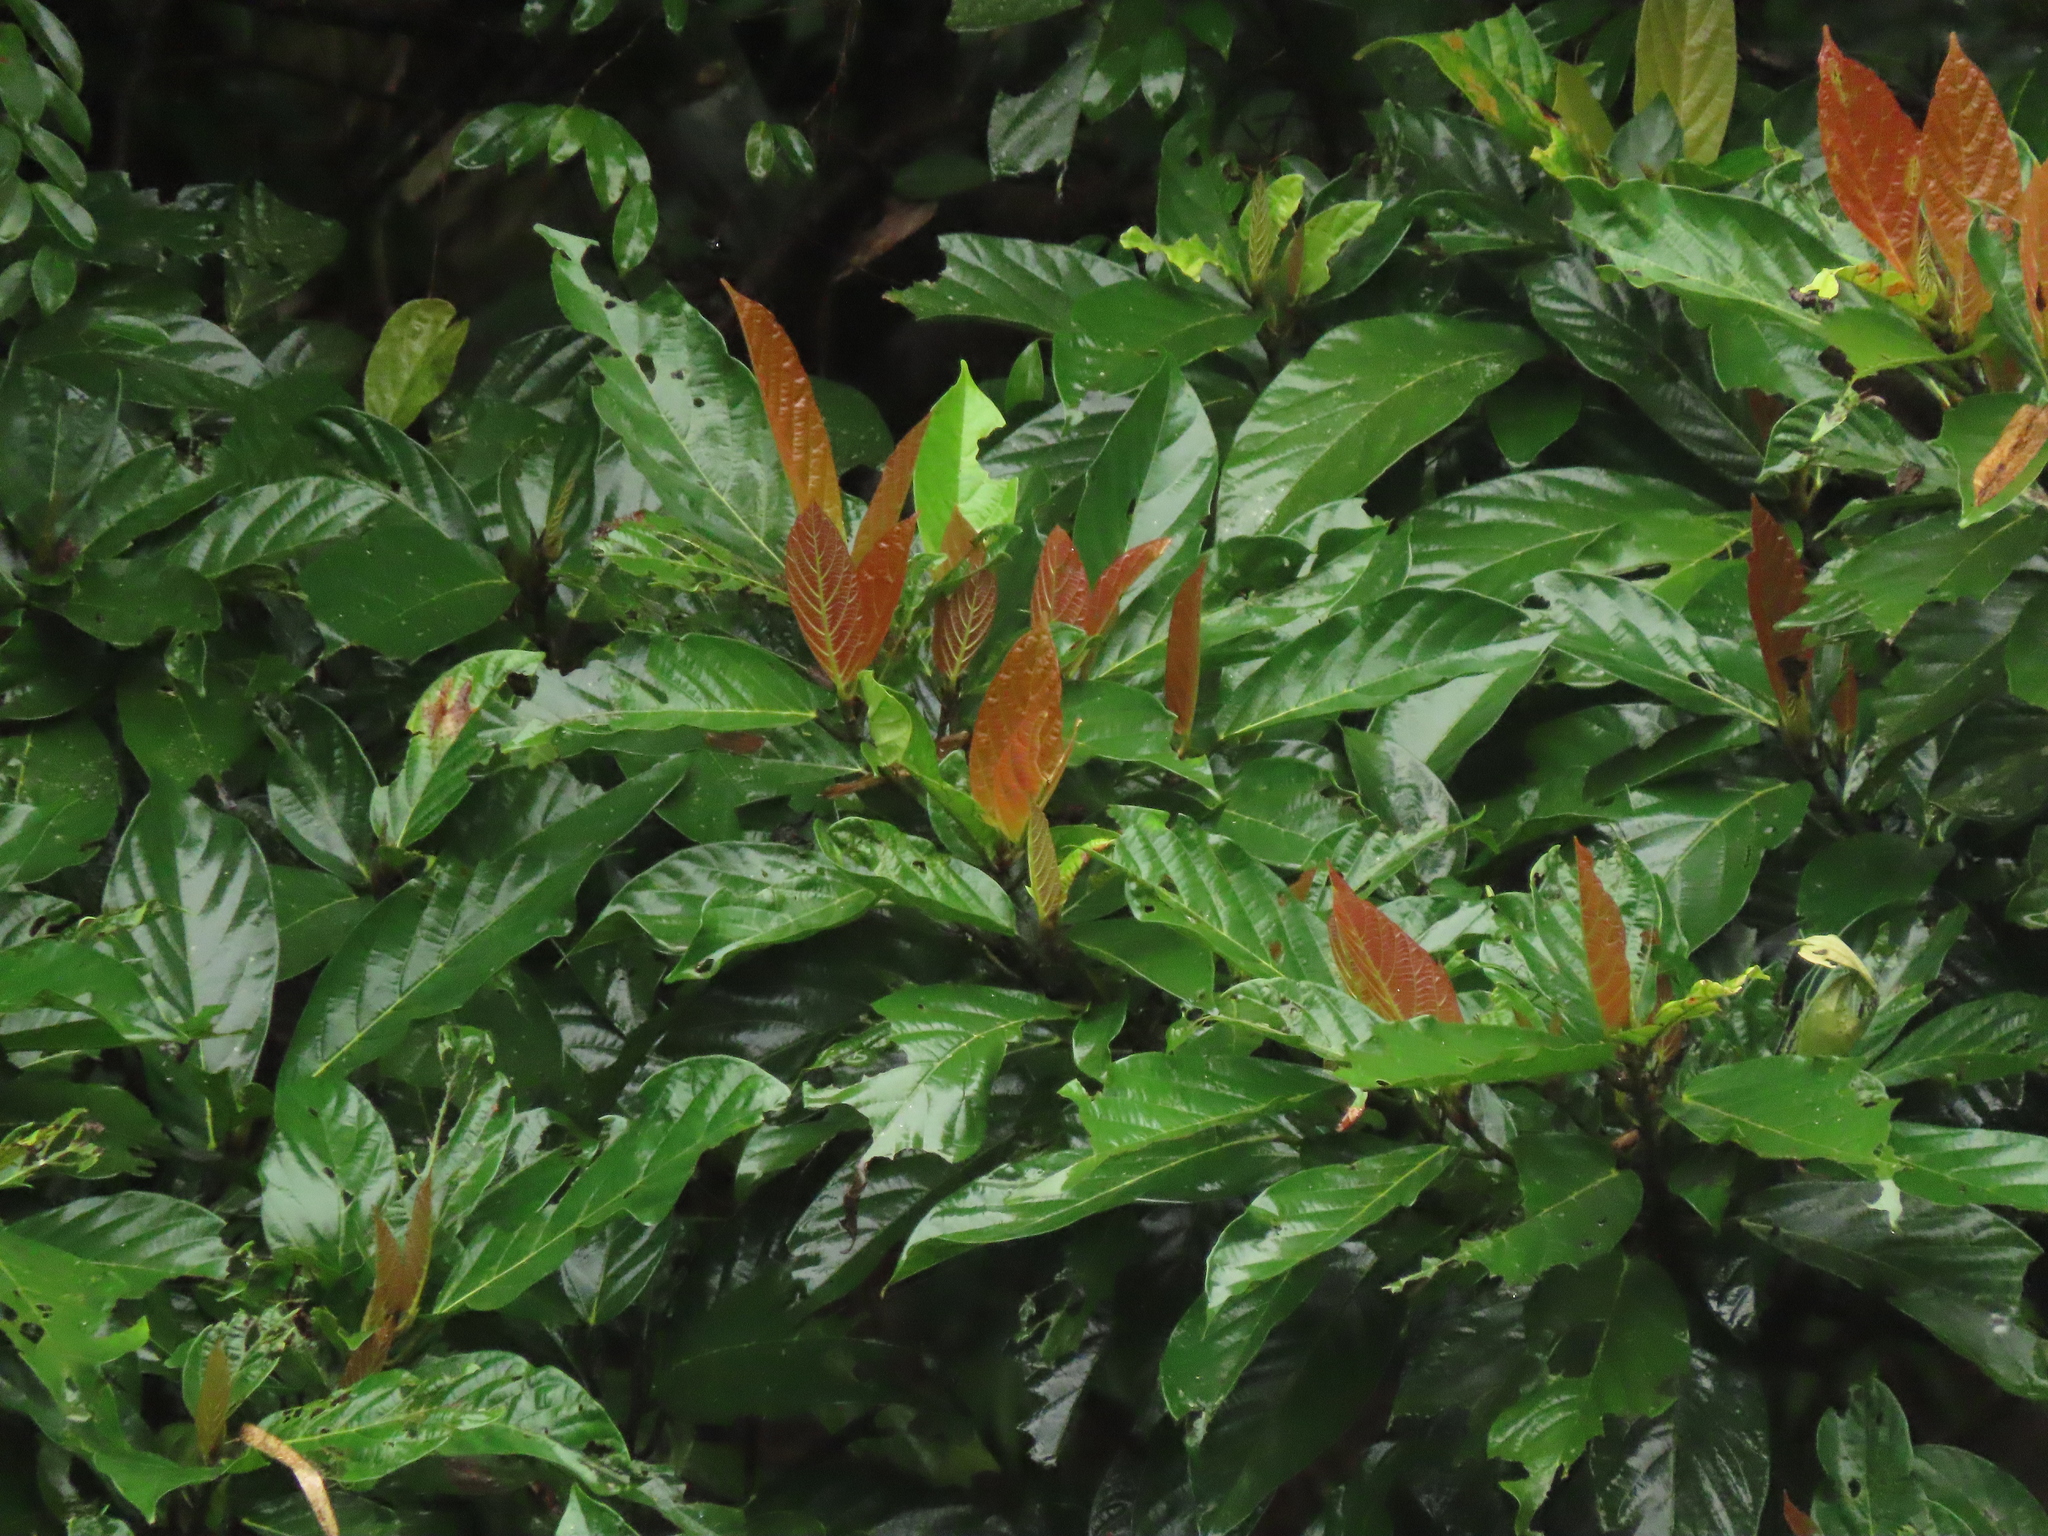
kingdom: Plantae
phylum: Tracheophyta
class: Magnoliopsida
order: Rosales
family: Moraceae
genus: Ficus
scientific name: Ficus benguetensis
